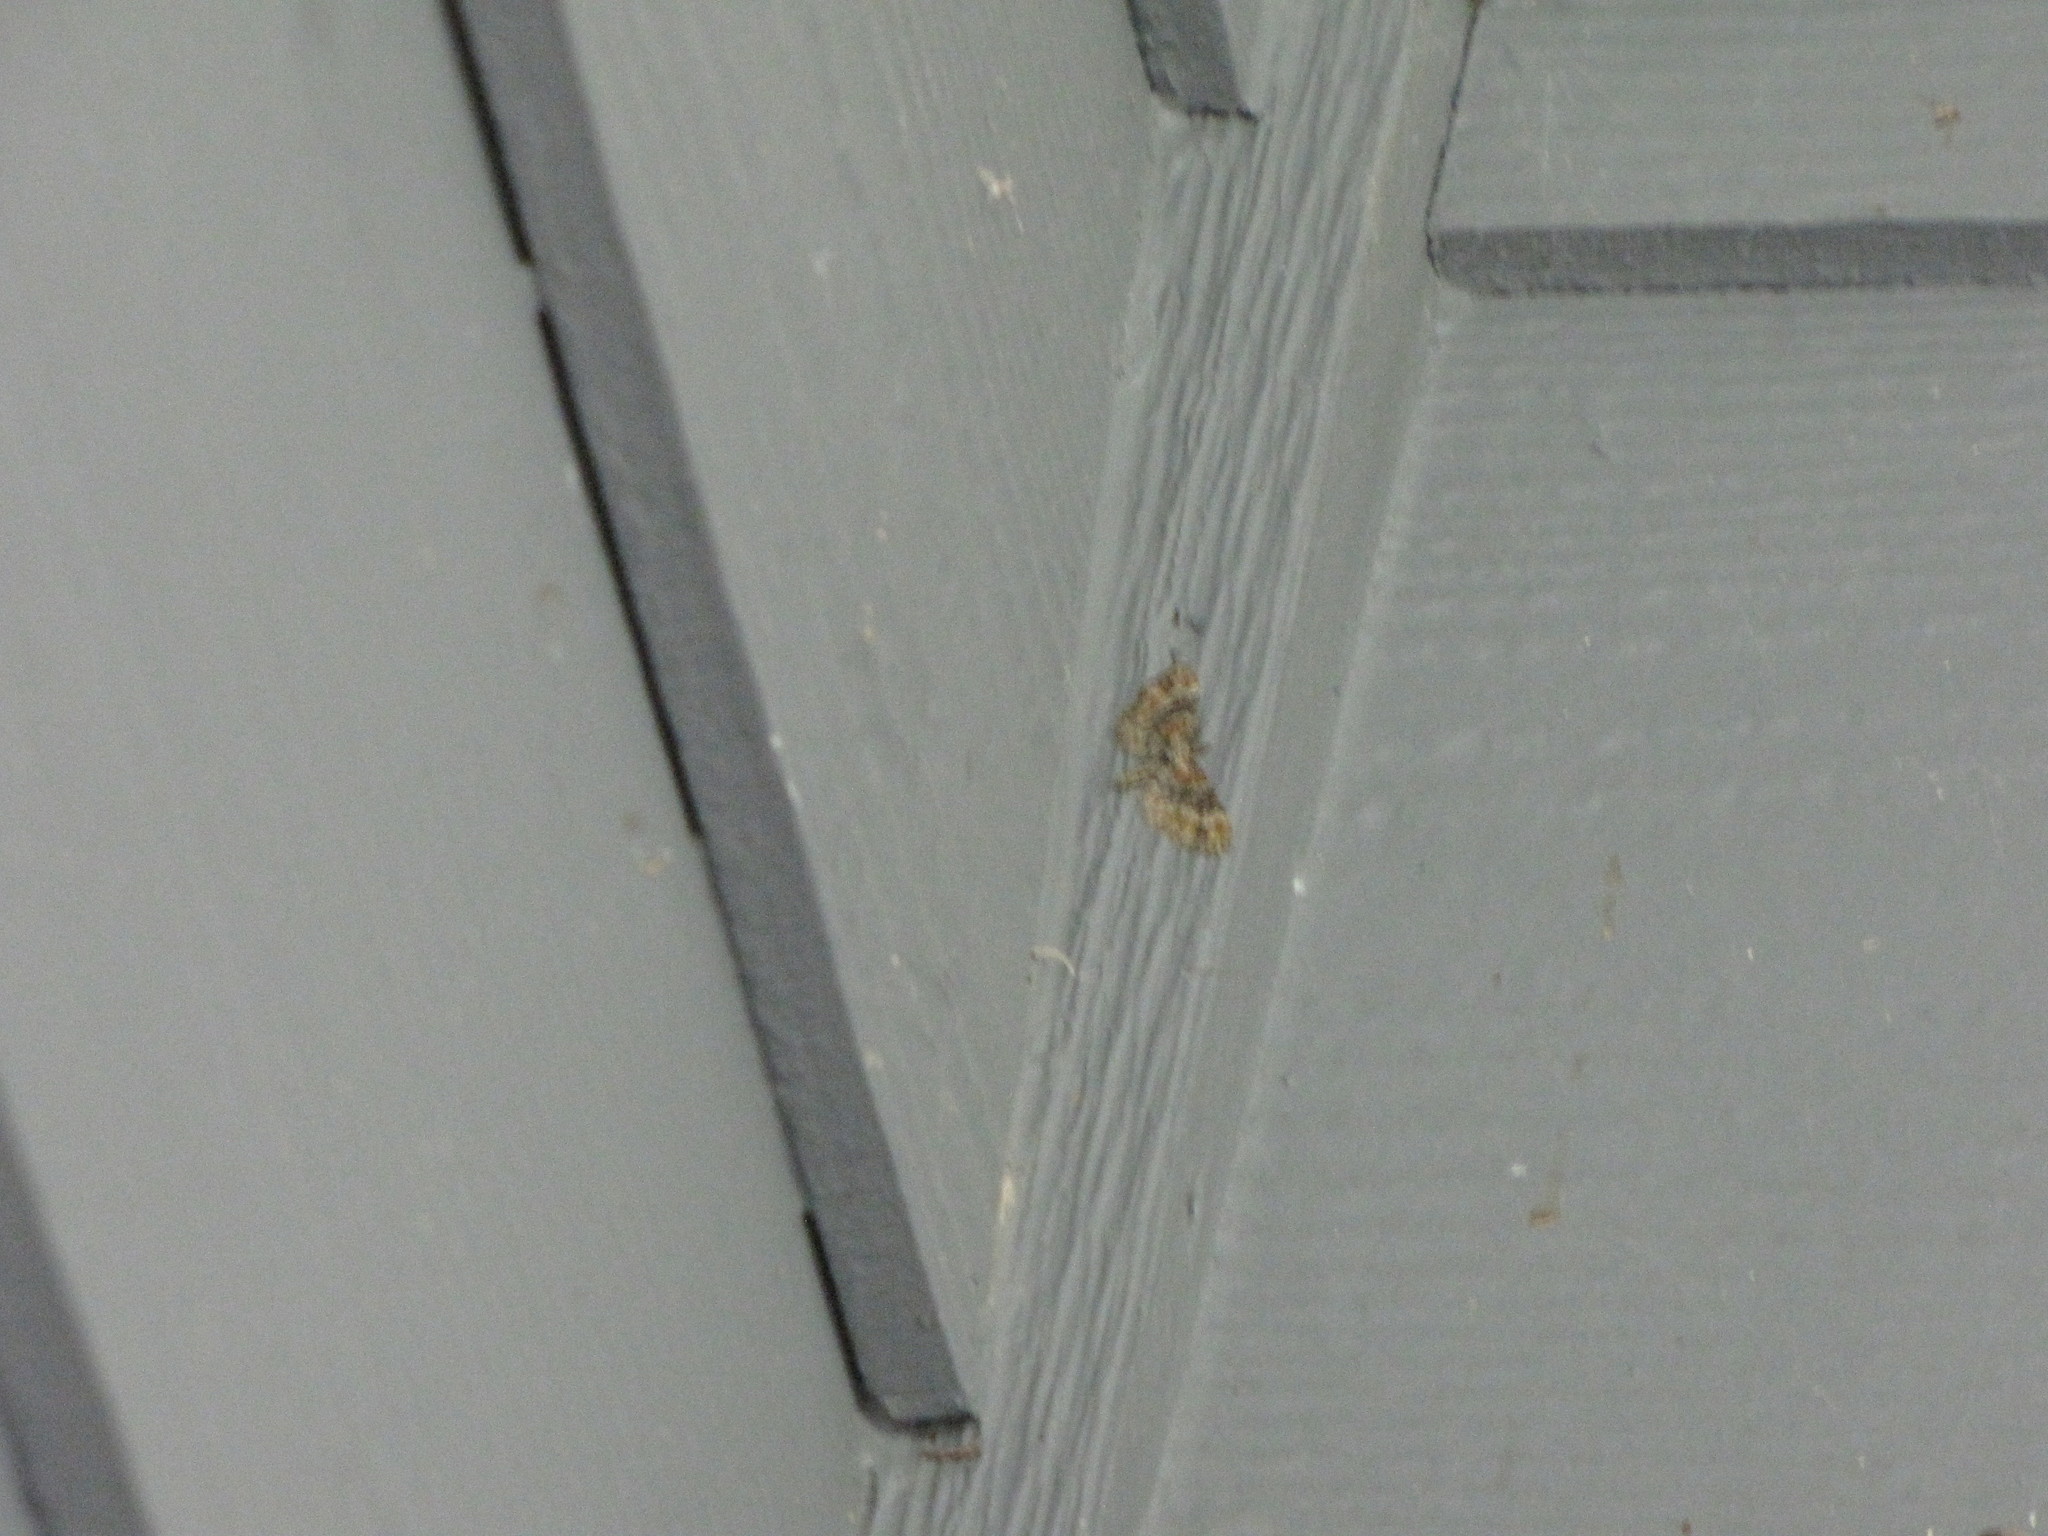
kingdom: Animalia
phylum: Arthropoda
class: Insecta
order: Lepidoptera
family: Geometridae
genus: Eupithecia
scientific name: Eupithecia rotundopuncta
